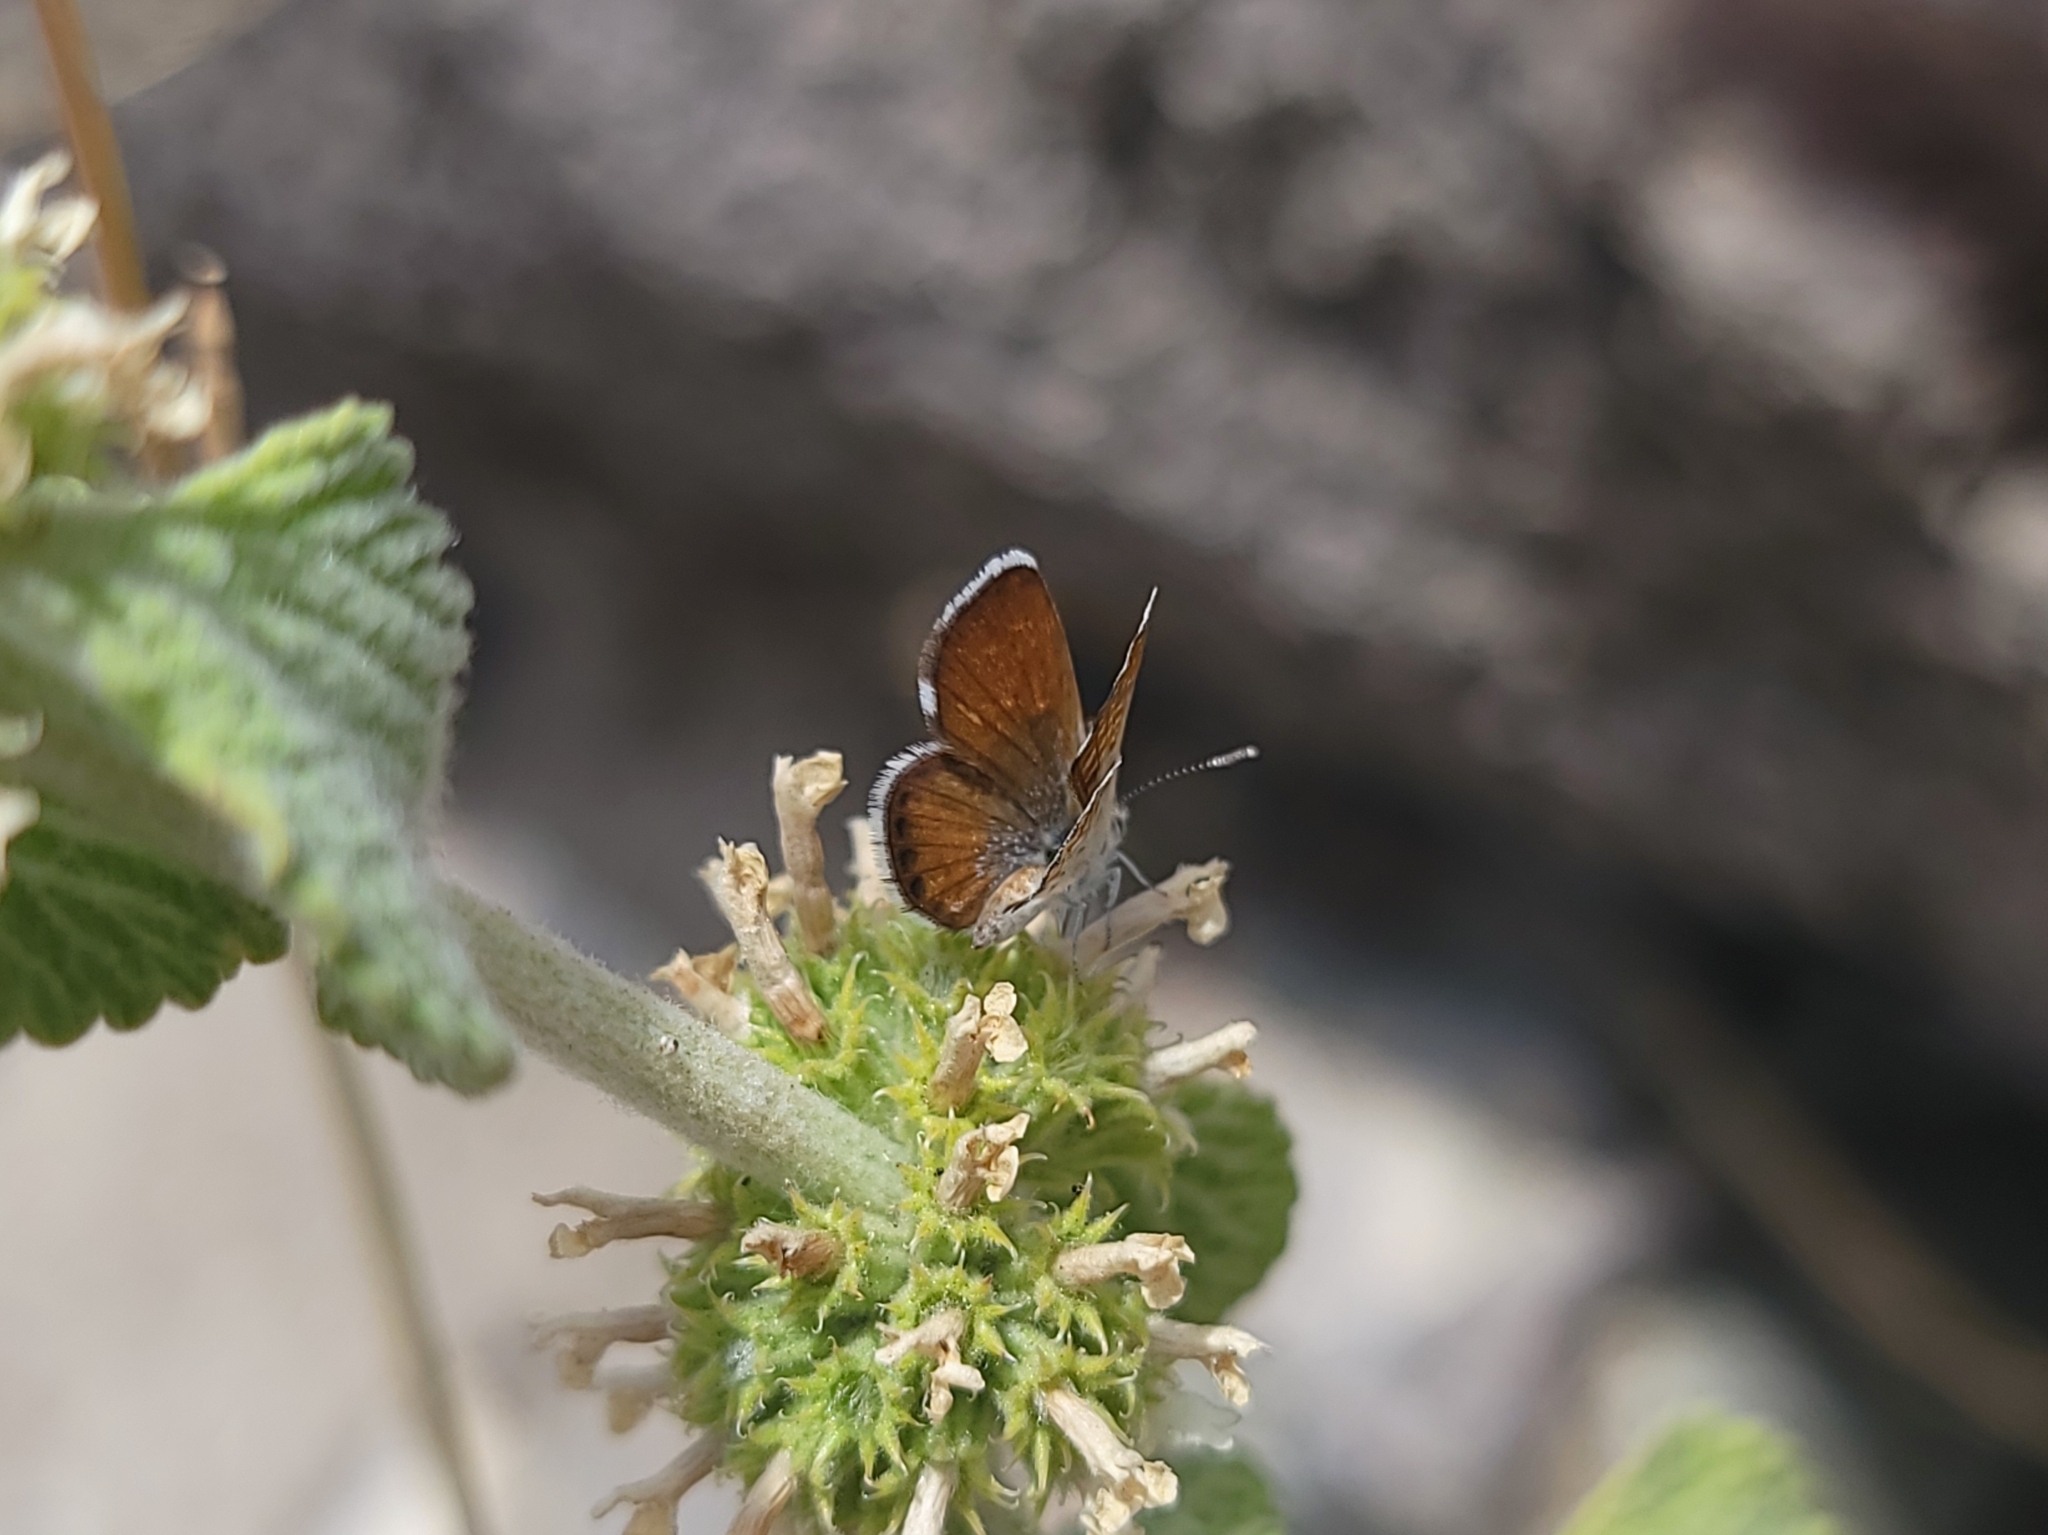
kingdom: Animalia
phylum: Arthropoda
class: Insecta
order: Lepidoptera
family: Lycaenidae
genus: Brephidium
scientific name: Brephidium exilis
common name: Pygmy blue
